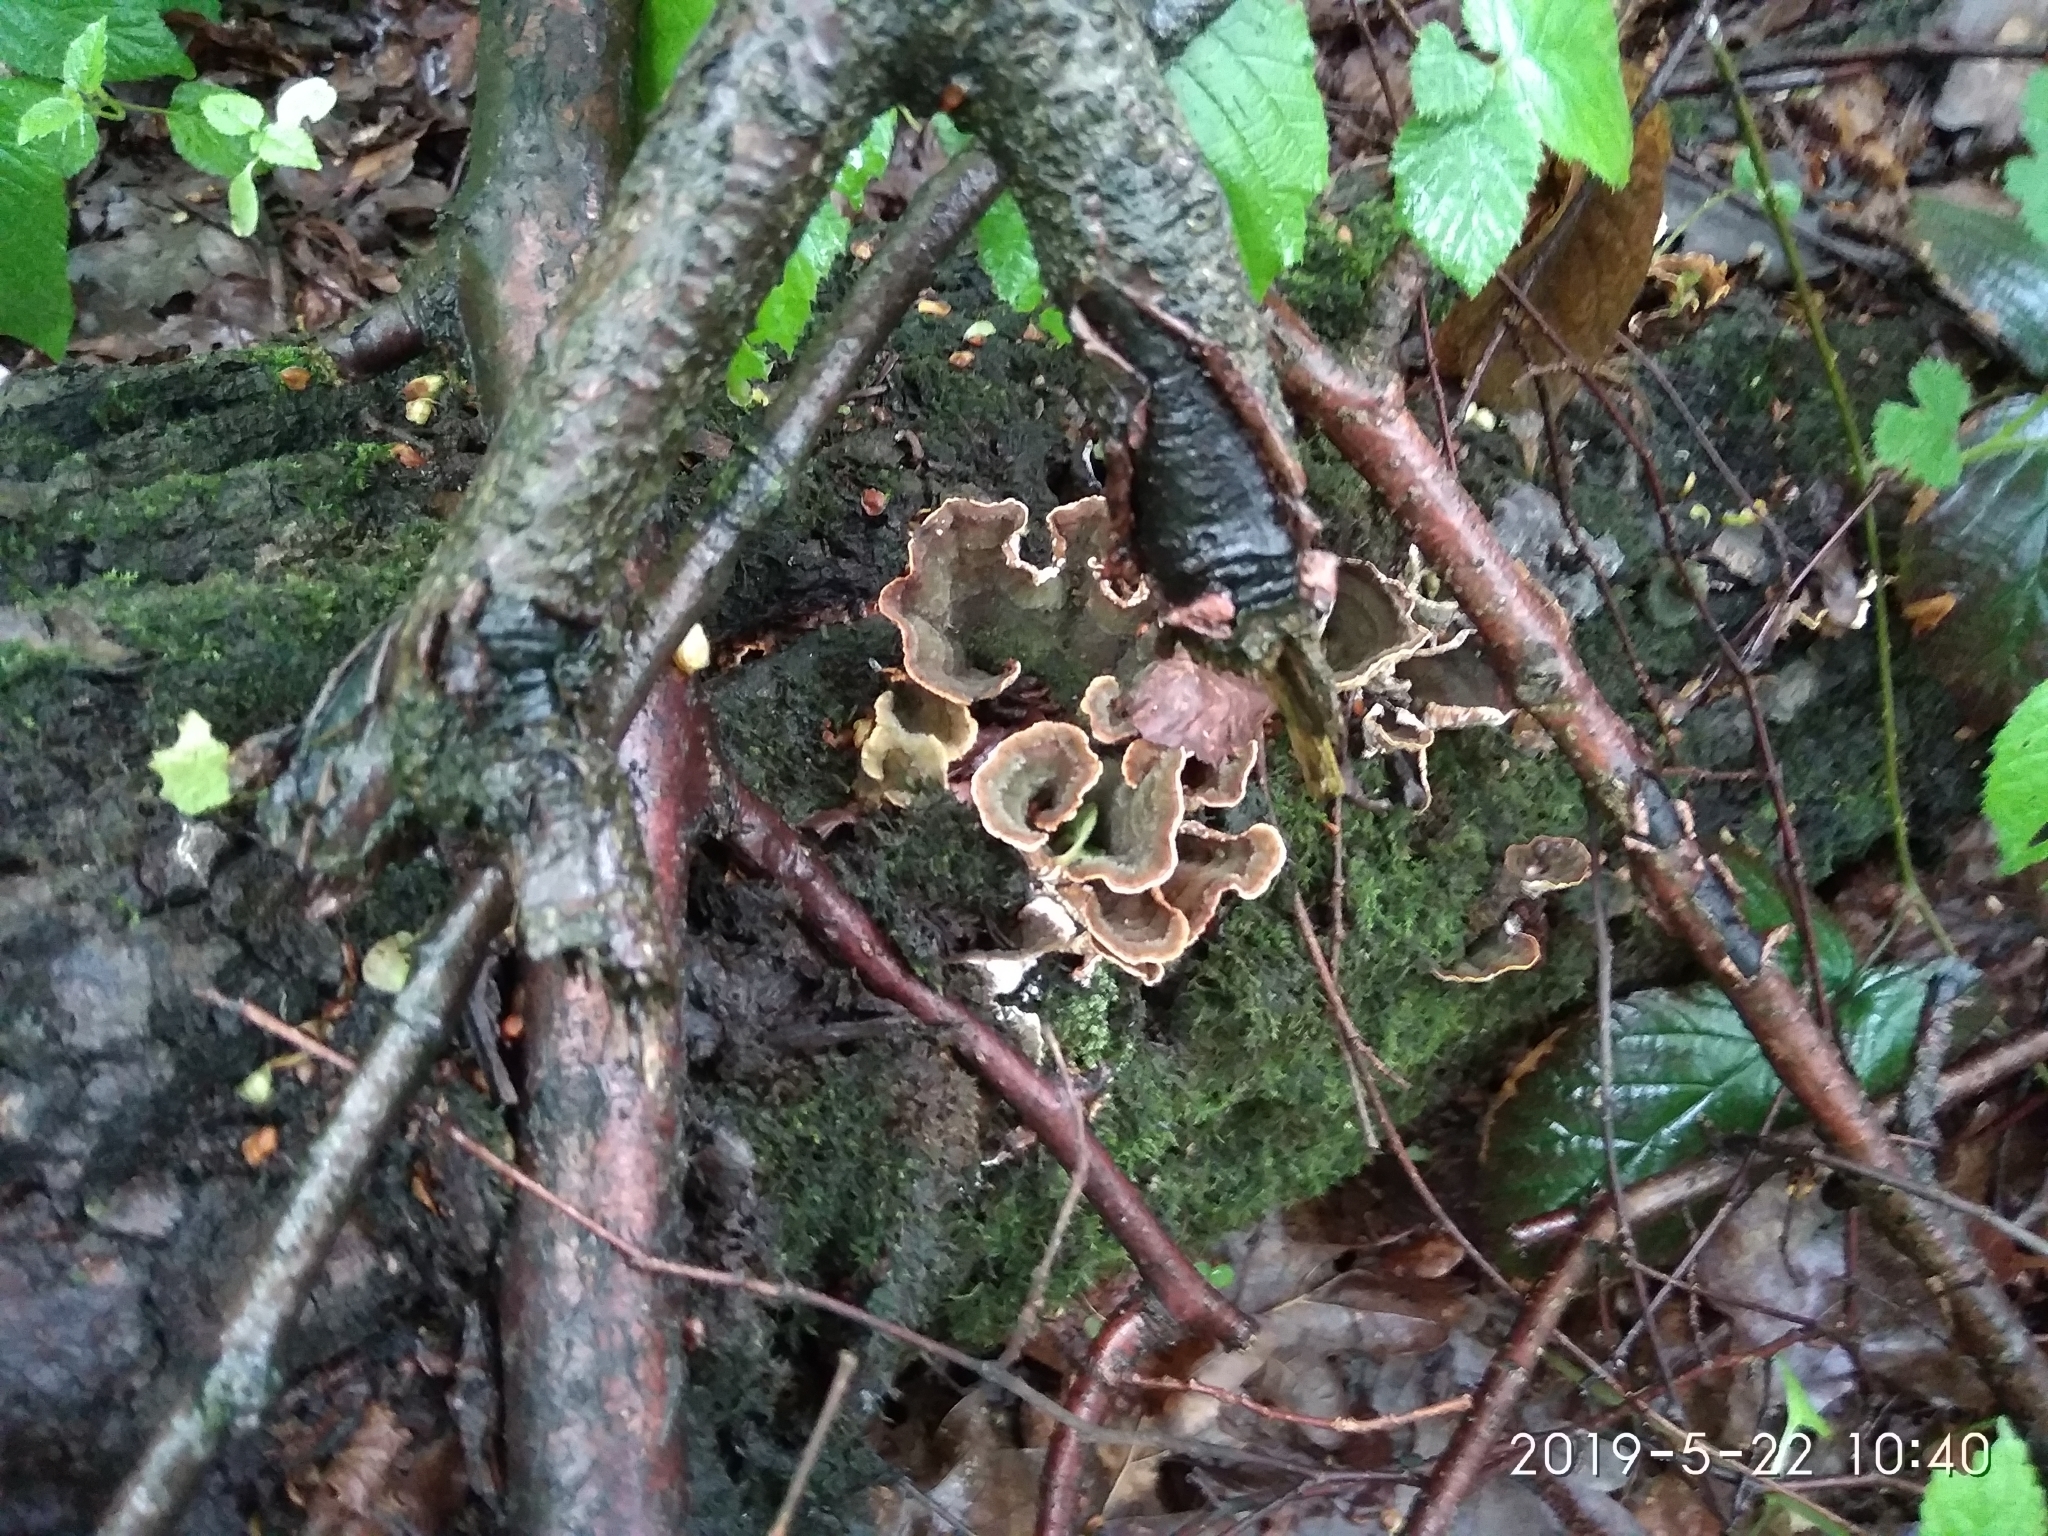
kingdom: Fungi
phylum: Basidiomycota
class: Agaricomycetes
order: Russulales
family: Stereaceae
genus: Stereum
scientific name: Stereum hirsutum
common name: Hairy curtain crust
